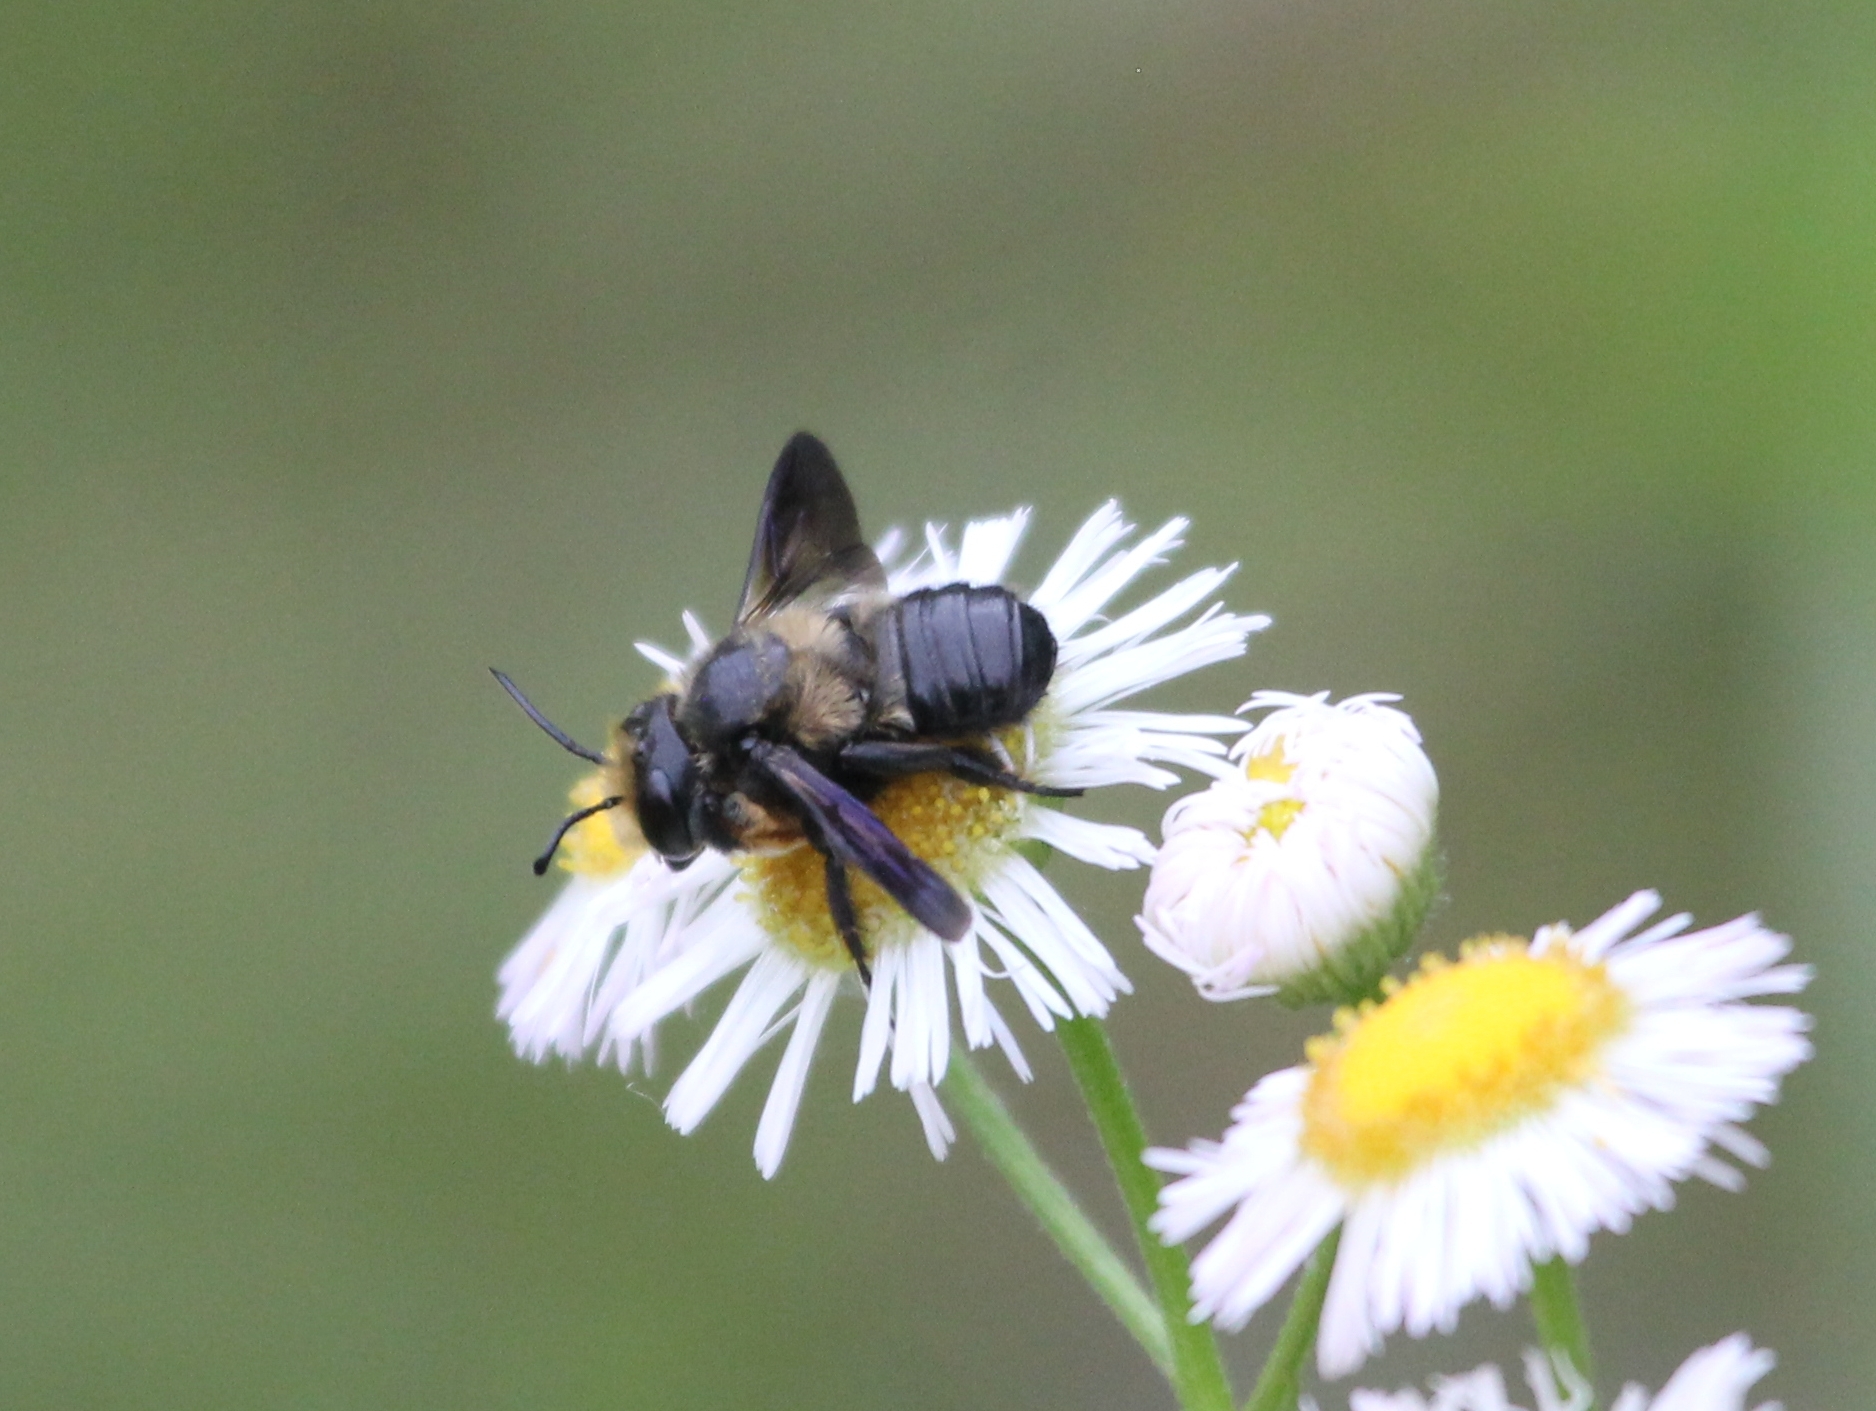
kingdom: Animalia
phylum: Arthropoda
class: Insecta
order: Hymenoptera
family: Megachilidae
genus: Megachile
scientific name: Megachile xylocopoides
